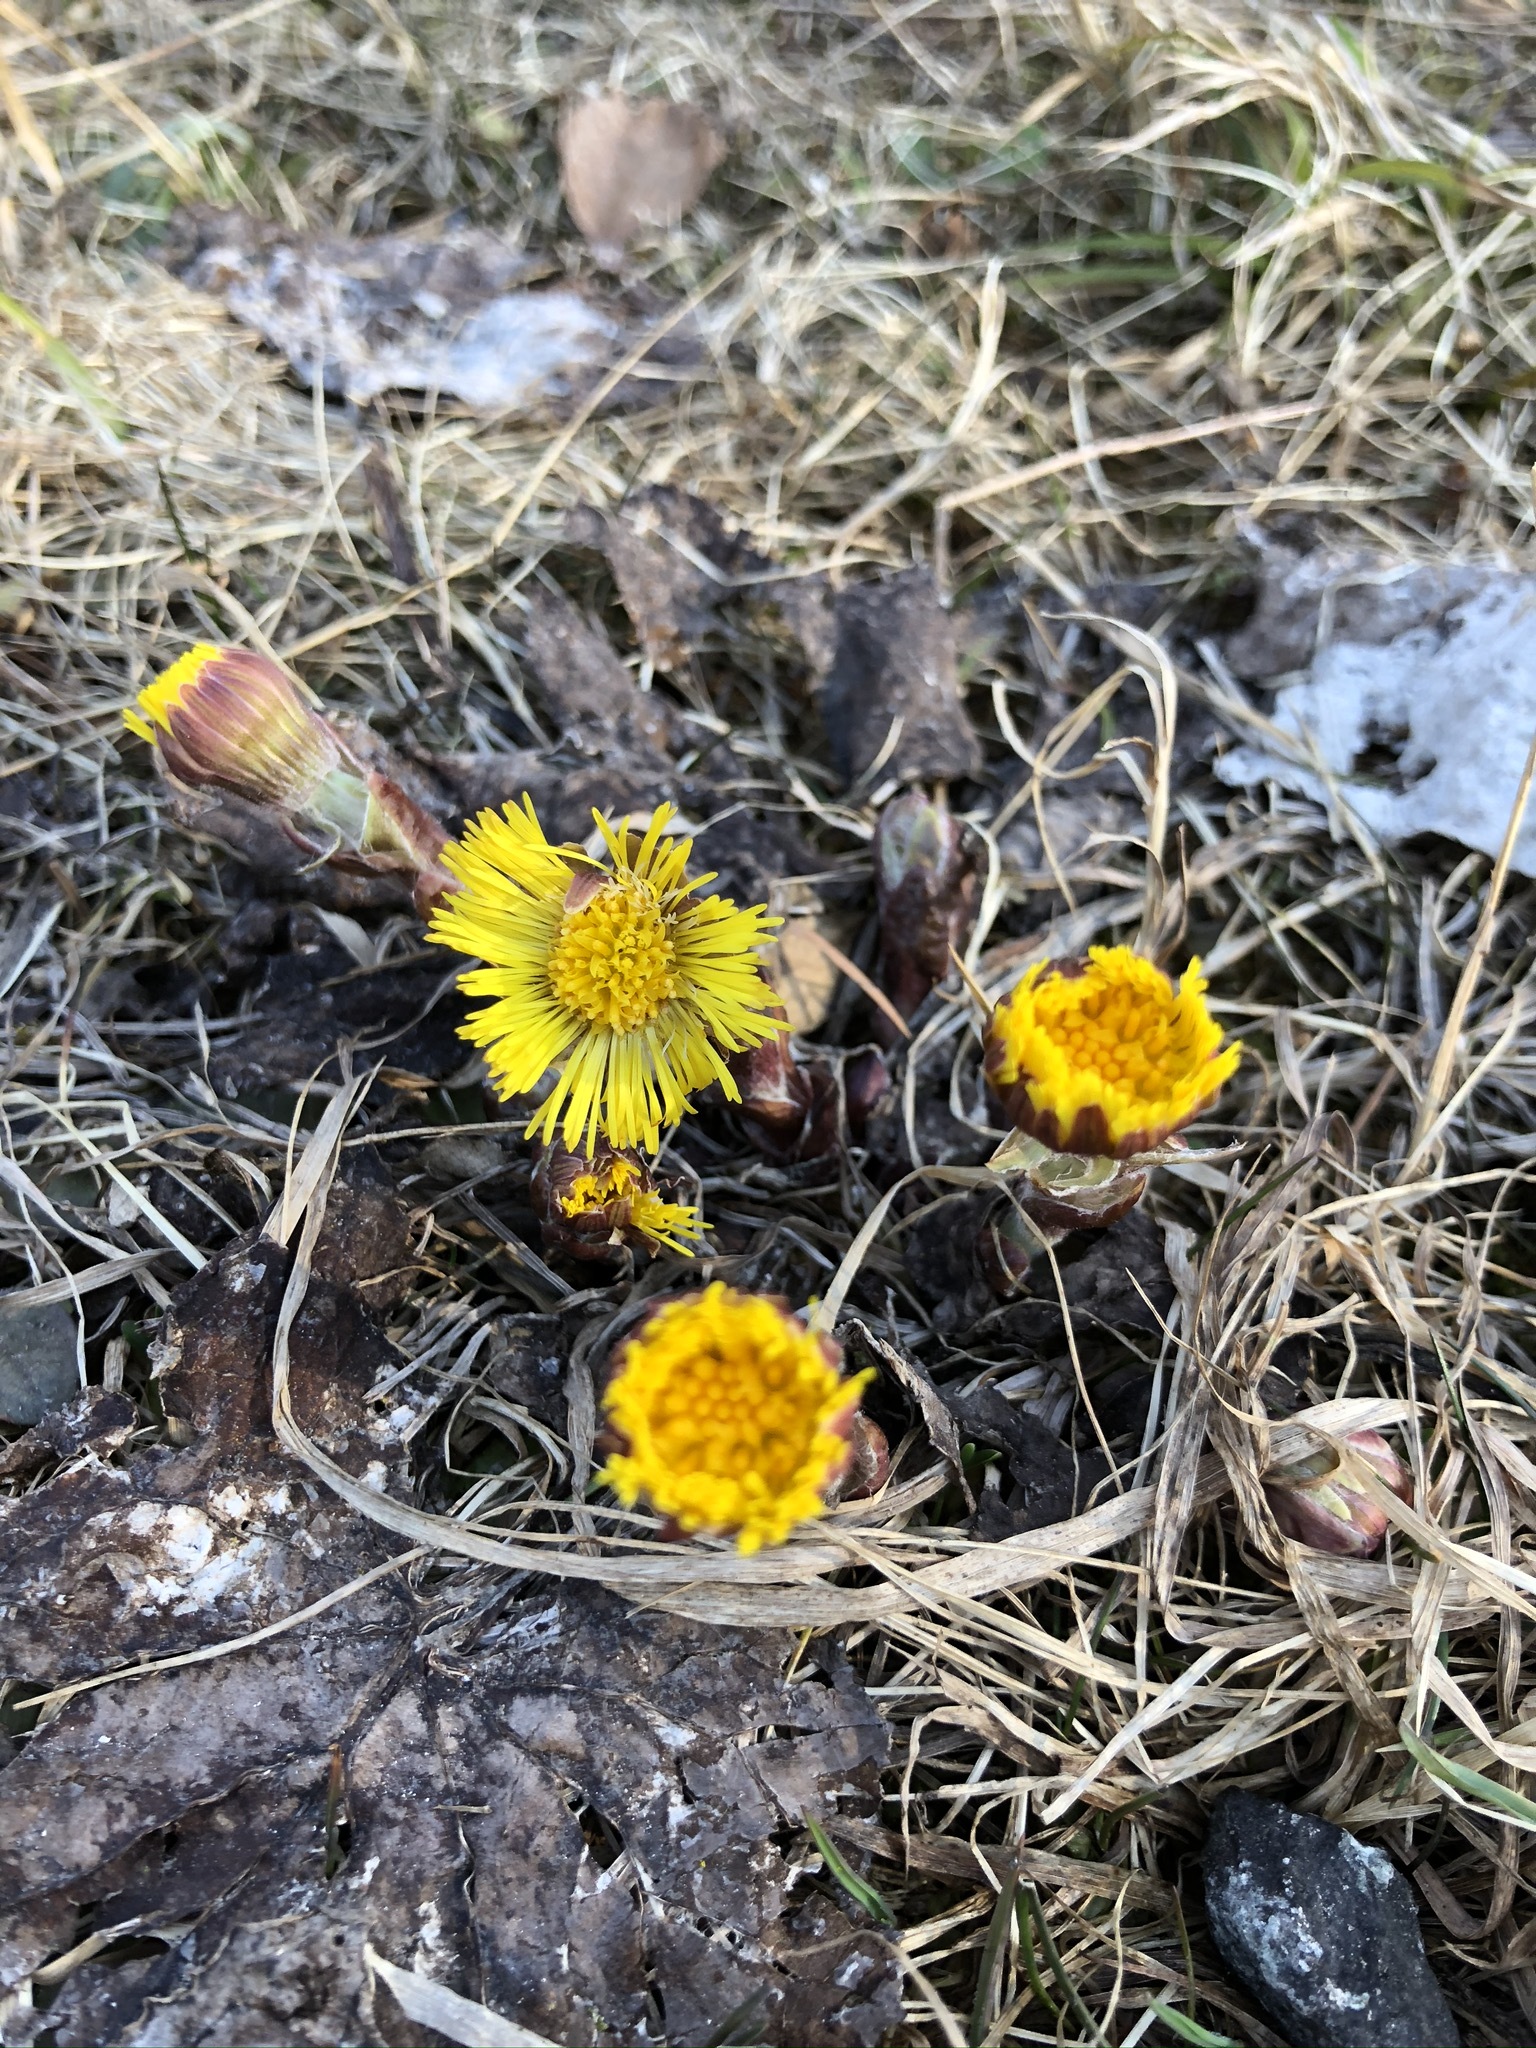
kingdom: Plantae
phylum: Tracheophyta
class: Magnoliopsida
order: Asterales
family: Asteraceae
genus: Tussilago
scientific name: Tussilago farfara
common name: Coltsfoot
